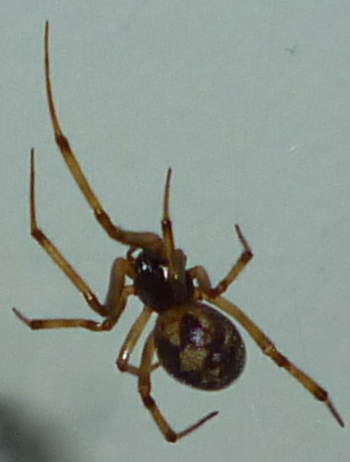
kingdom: Animalia
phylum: Arthropoda
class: Arachnida
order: Araneae
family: Theridiidae
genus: Steatoda
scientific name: Steatoda triangulosa
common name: Triangulate bud spider
